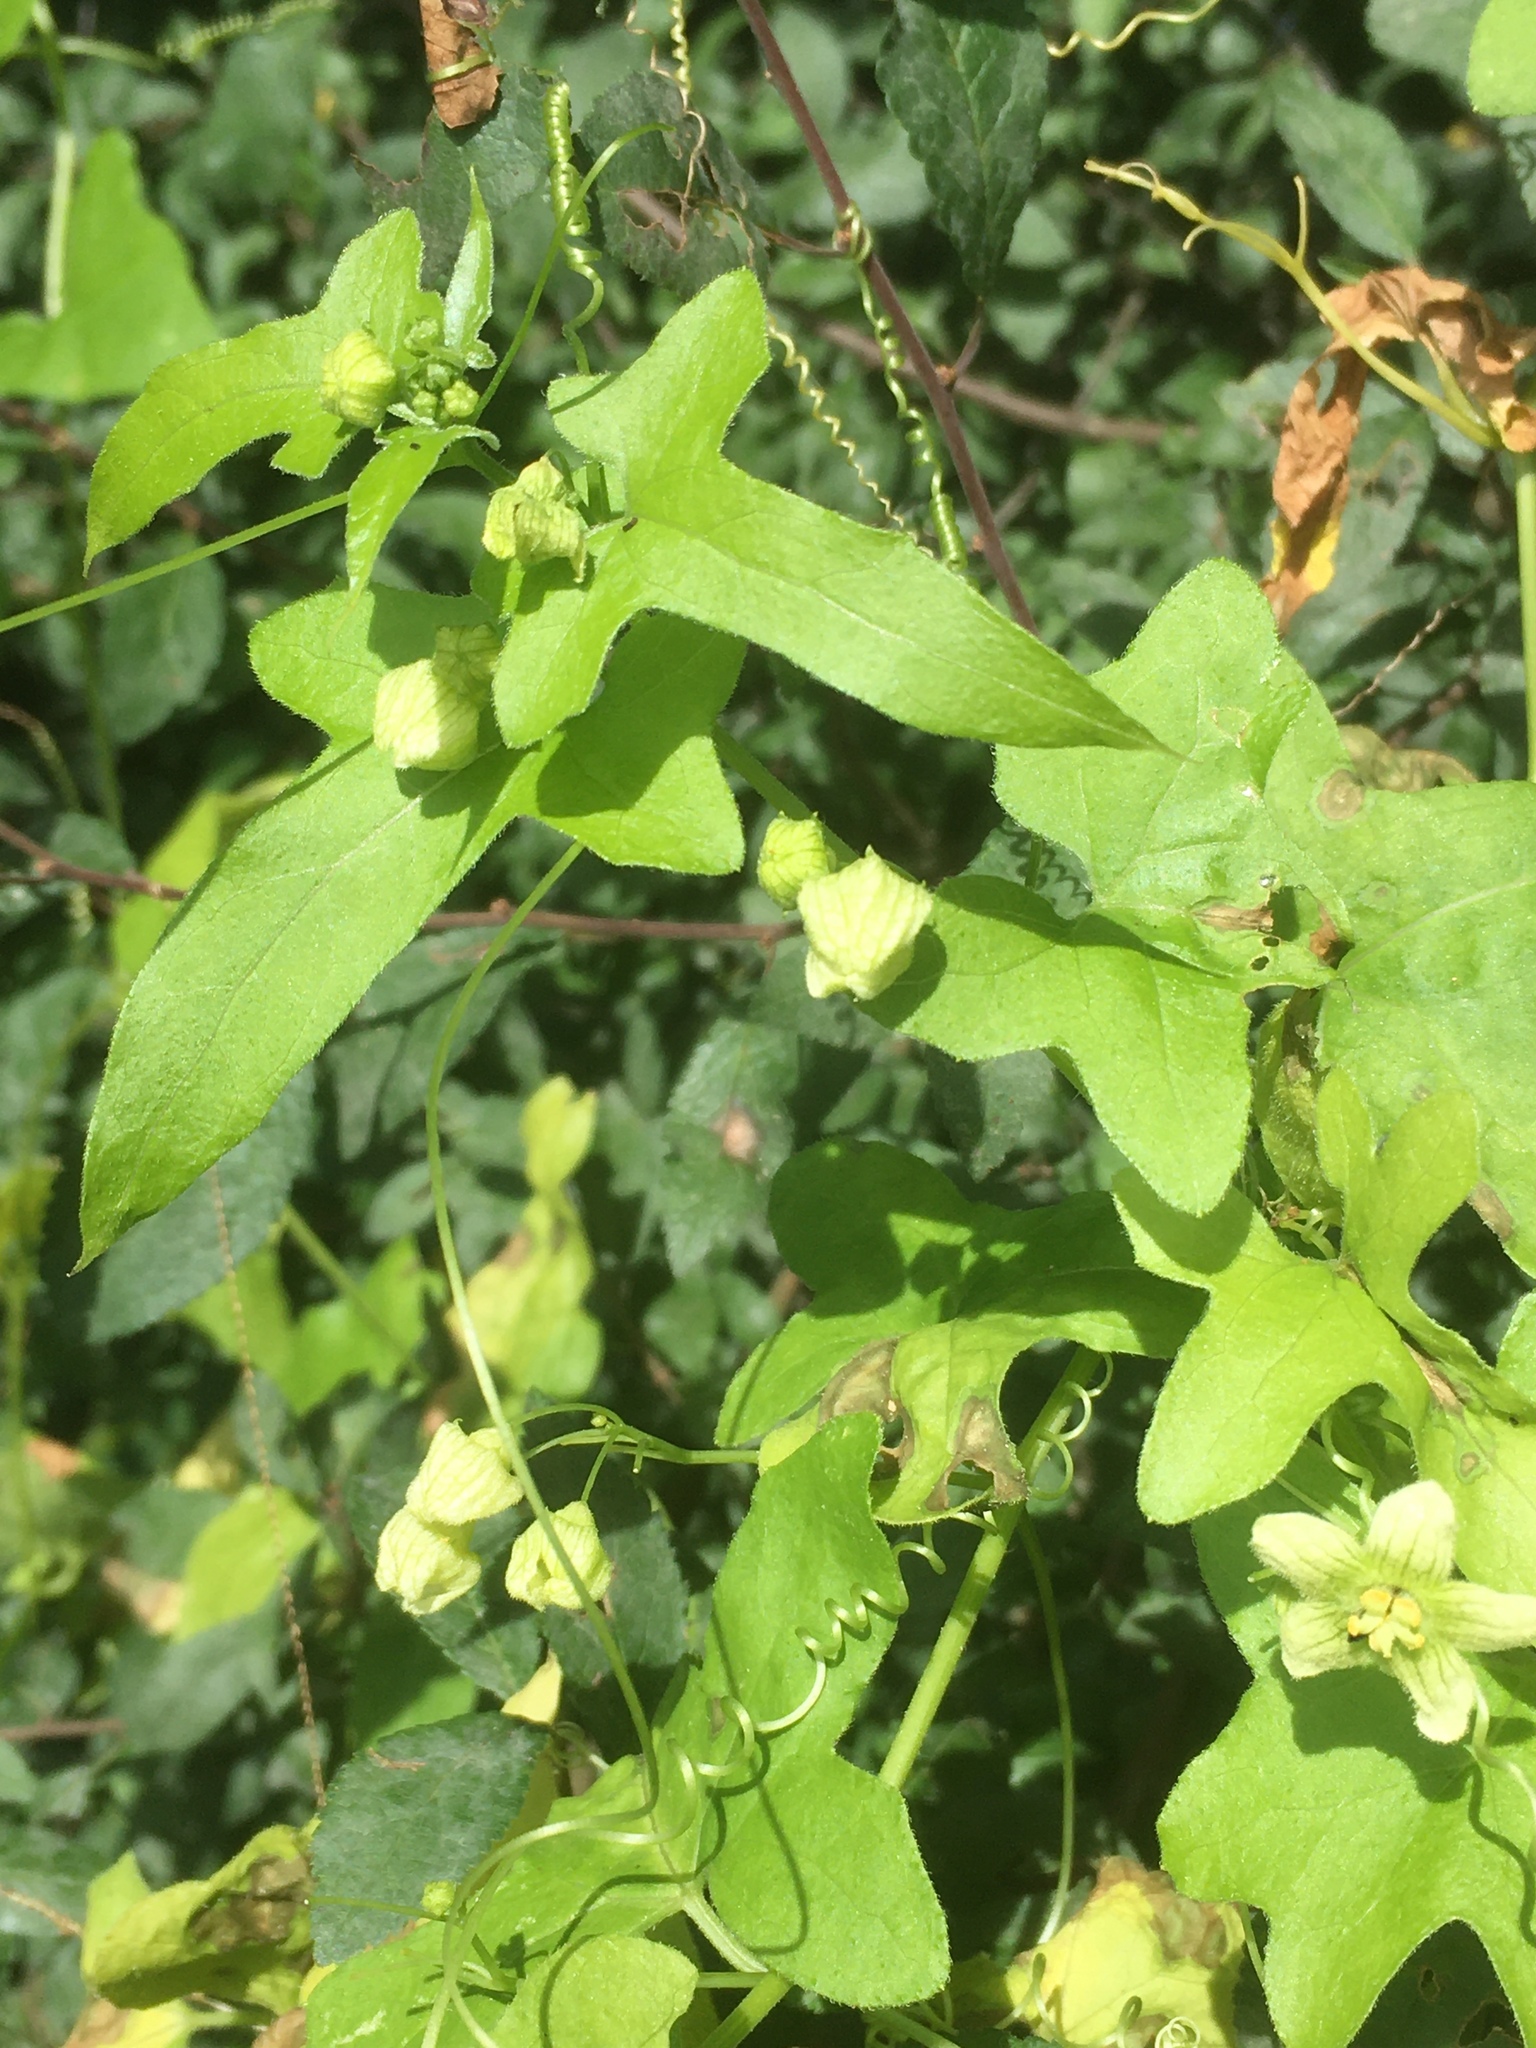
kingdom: Plantae
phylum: Tracheophyta
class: Magnoliopsida
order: Cucurbitales
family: Cucurbitaceae
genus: Bryonia
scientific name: Bryonia cretica
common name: Cretan bryony
